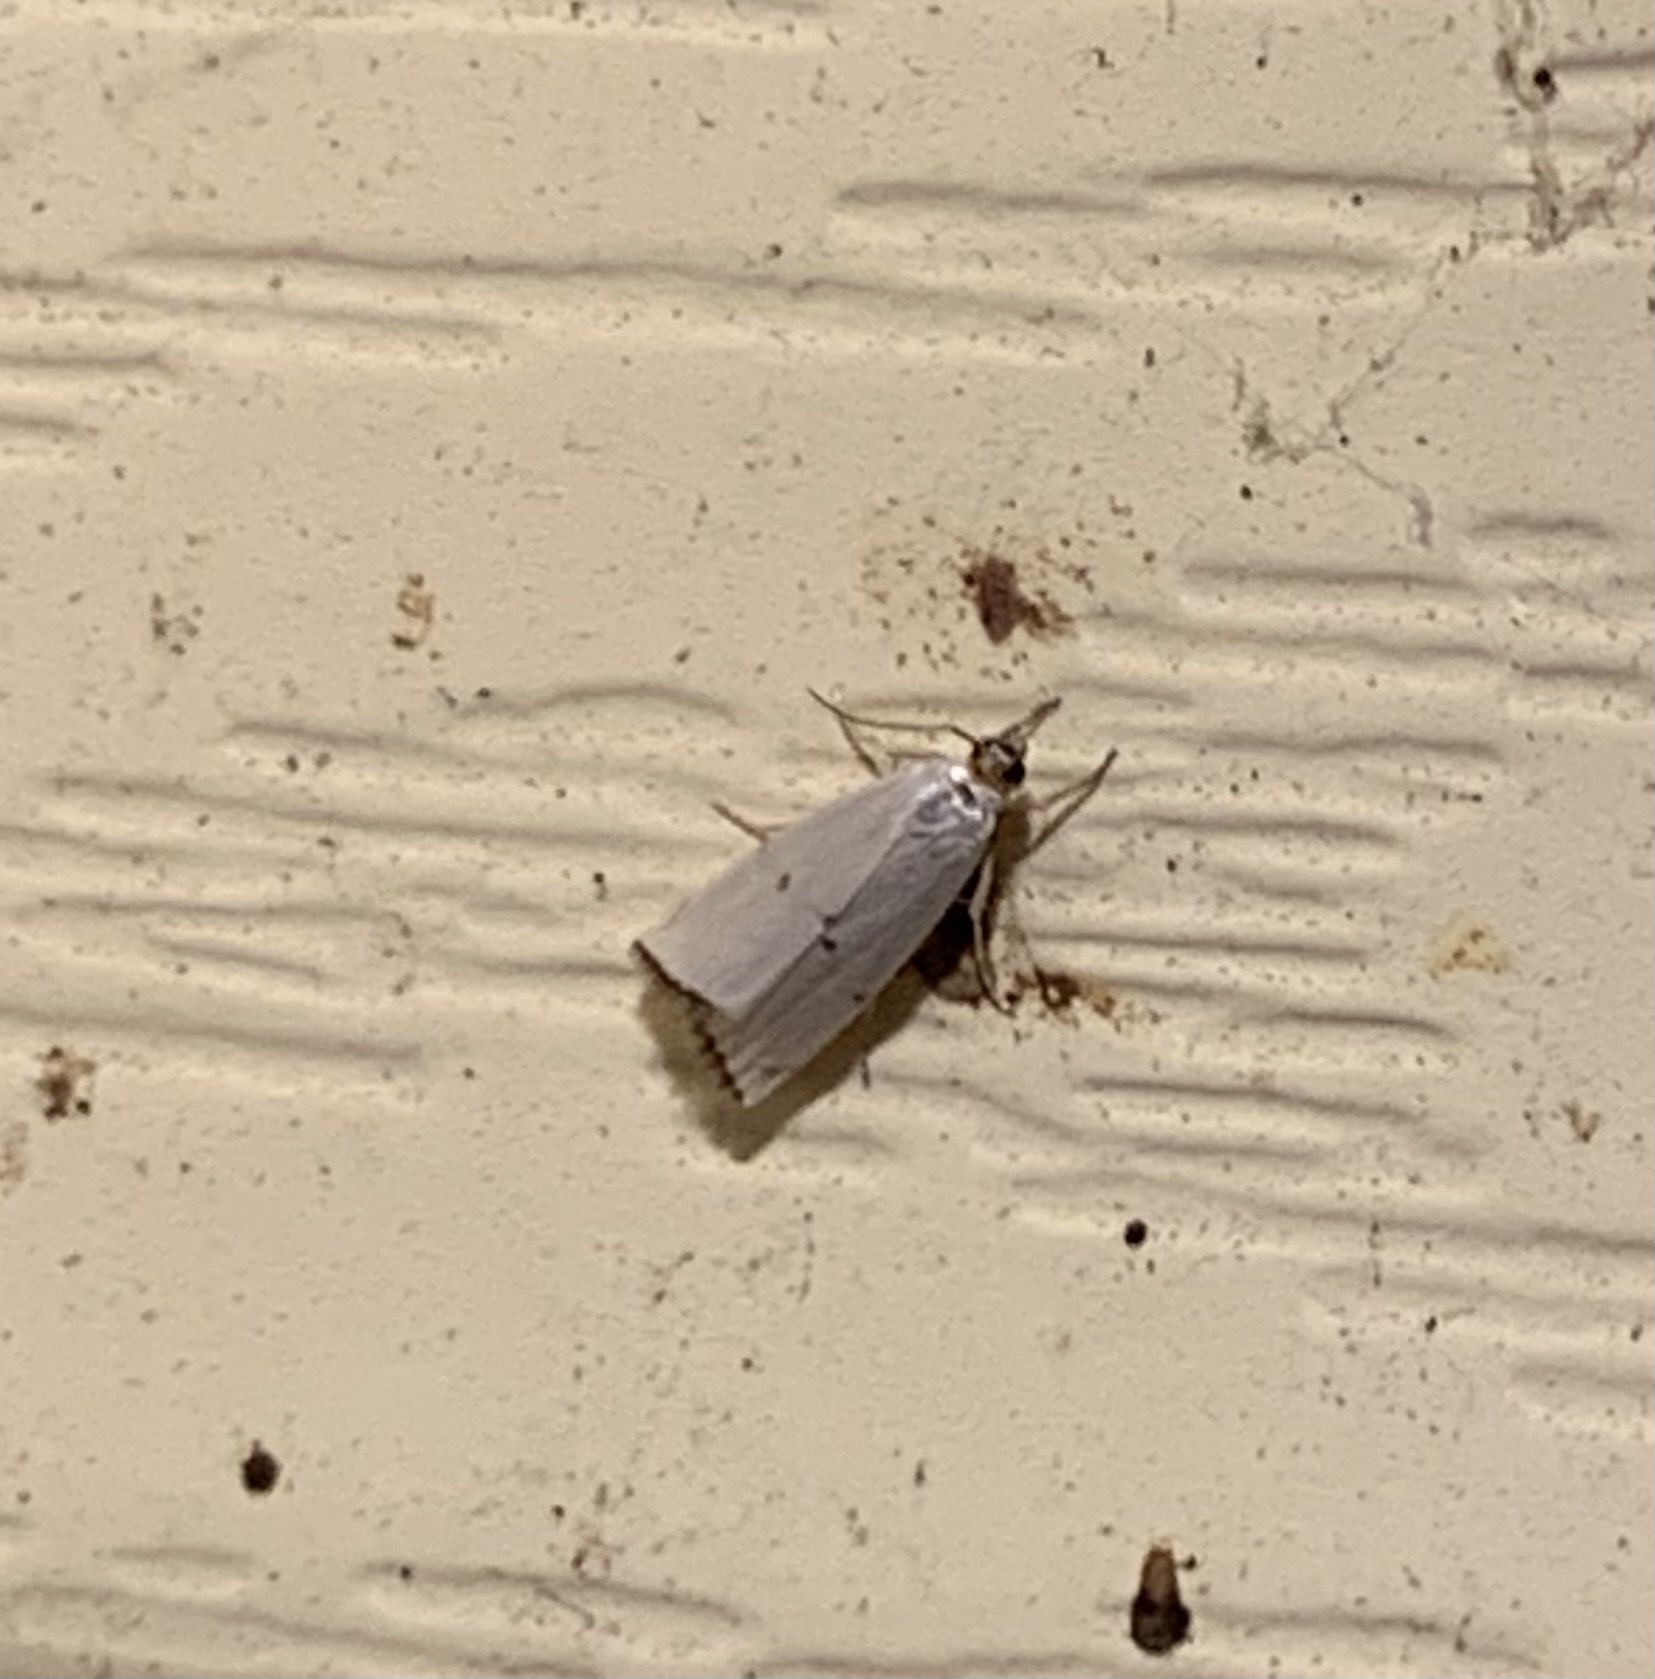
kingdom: Animalia
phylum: Arthropoda
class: Insecta
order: Lepidoptera
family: Crambidae
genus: Argyria
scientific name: Argyria pusillalis
